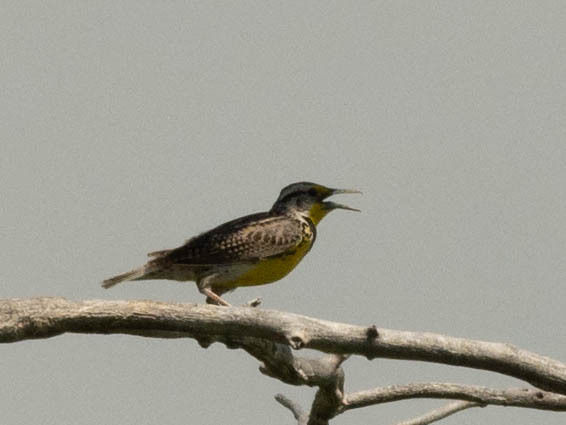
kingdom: Animalia
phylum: Chordata
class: Aves
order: Passeriformes
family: Icteridae
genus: Sturnella
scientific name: Sturnella neglecta
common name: Western meadowlark
